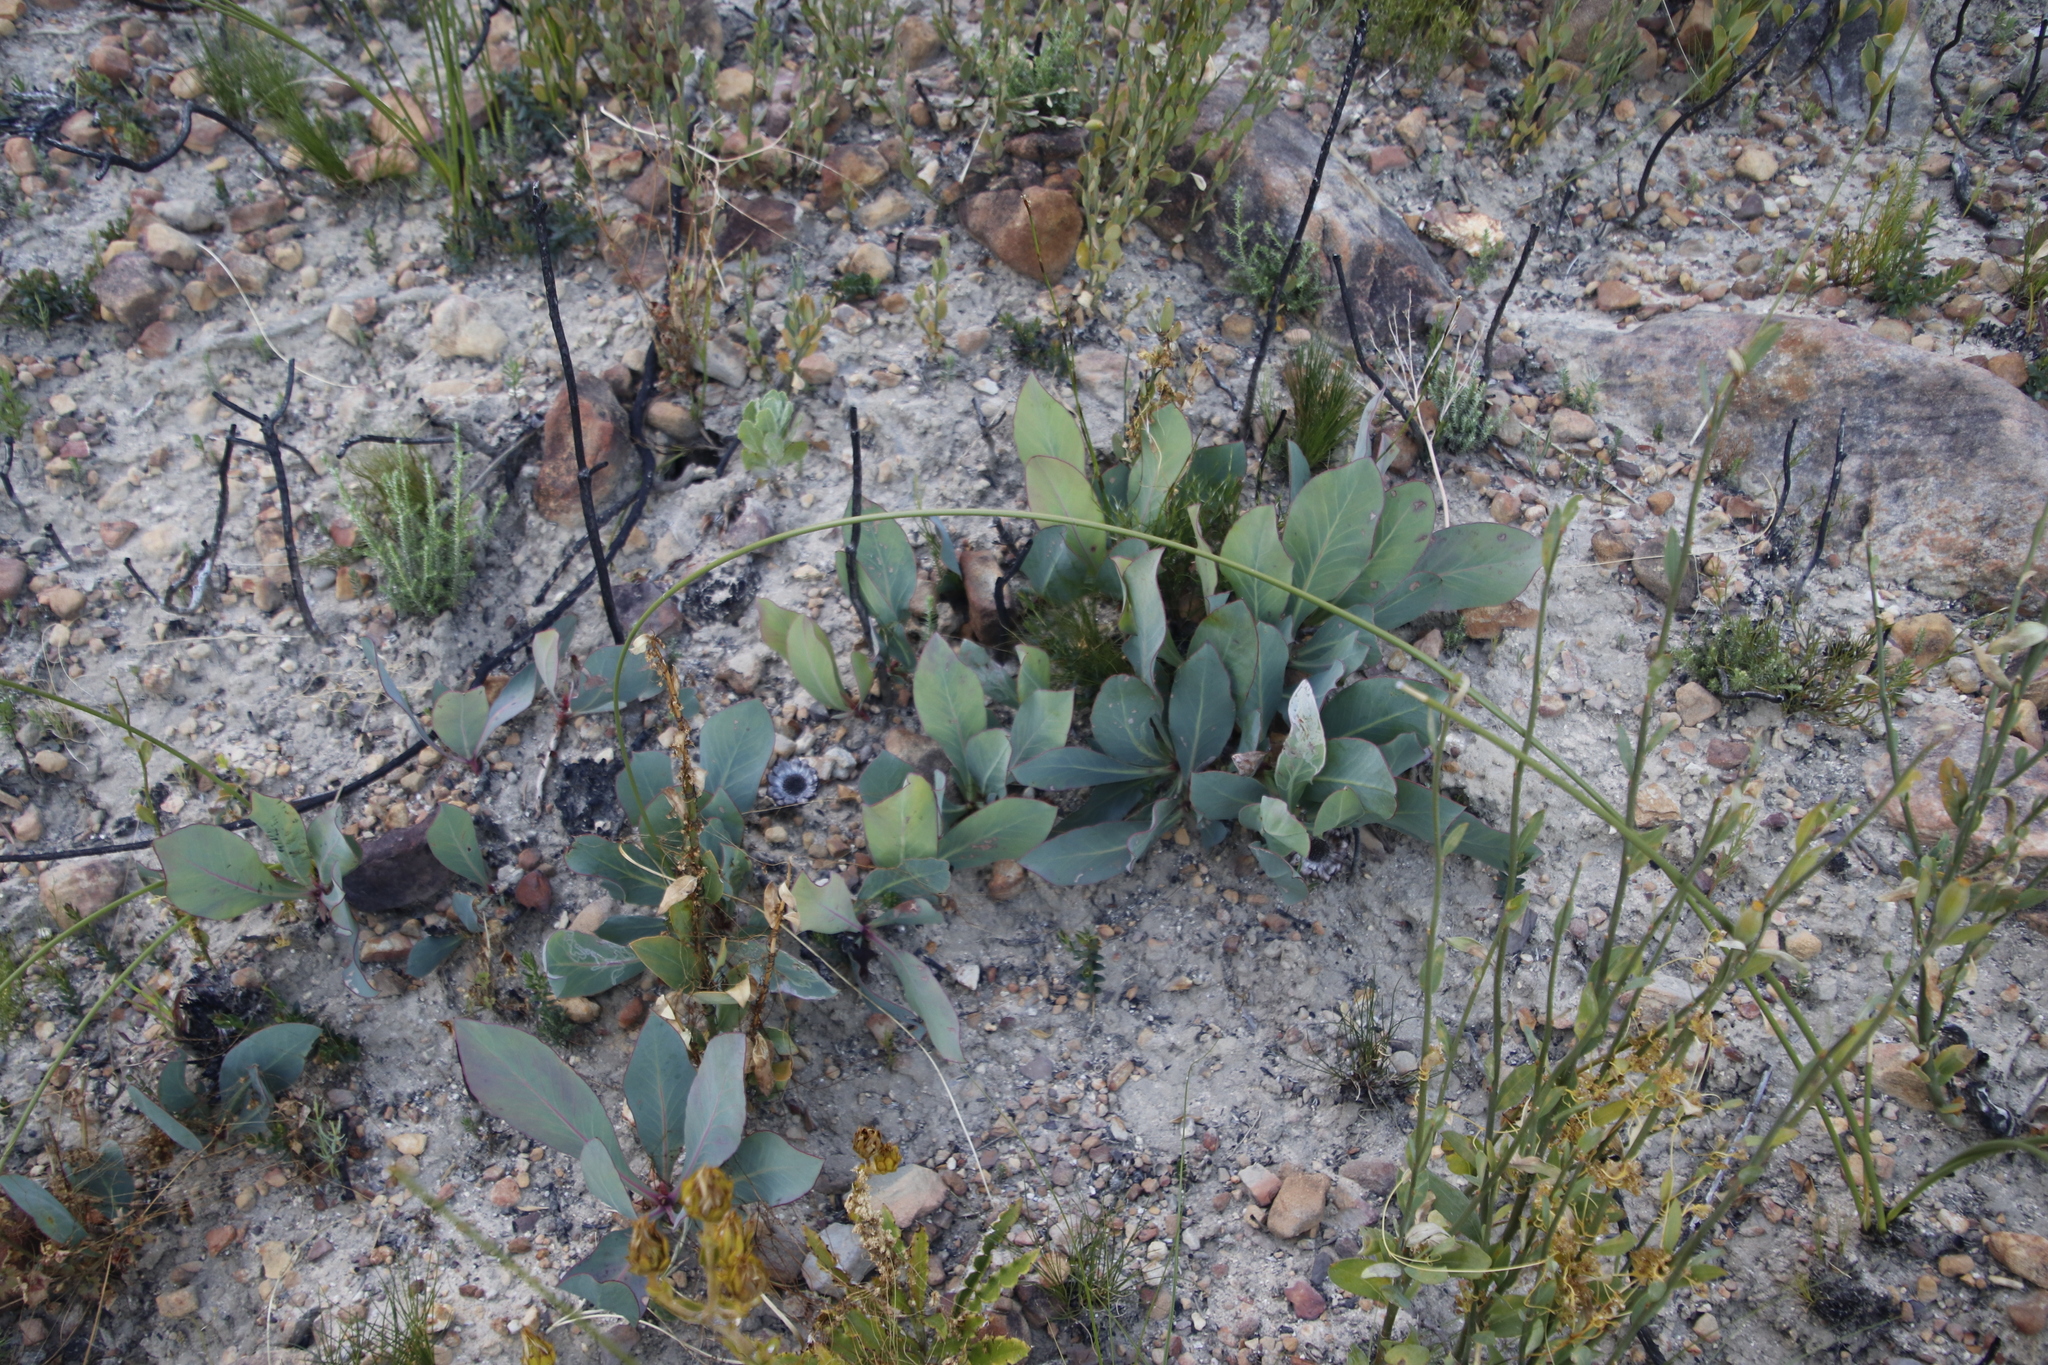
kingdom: Plantae
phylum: Tracheophyta
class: Magnoliopsida
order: Proteales
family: Proteaceae
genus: Protea
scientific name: Protea acaulos
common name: Common ground sugarbush
